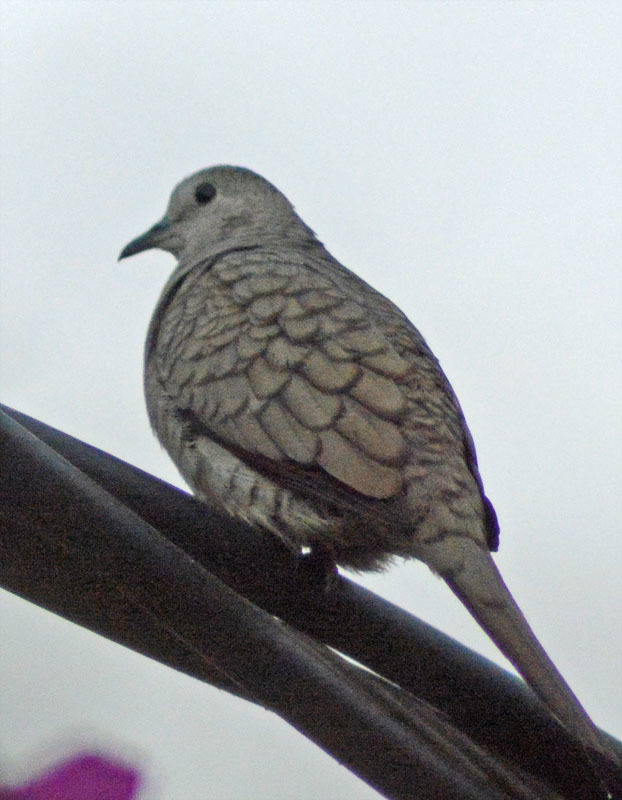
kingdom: Animalia
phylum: Chordata
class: Aves
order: Columbiformes
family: Columbidae
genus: Columbina
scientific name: Columbina inca
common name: Inca dove
